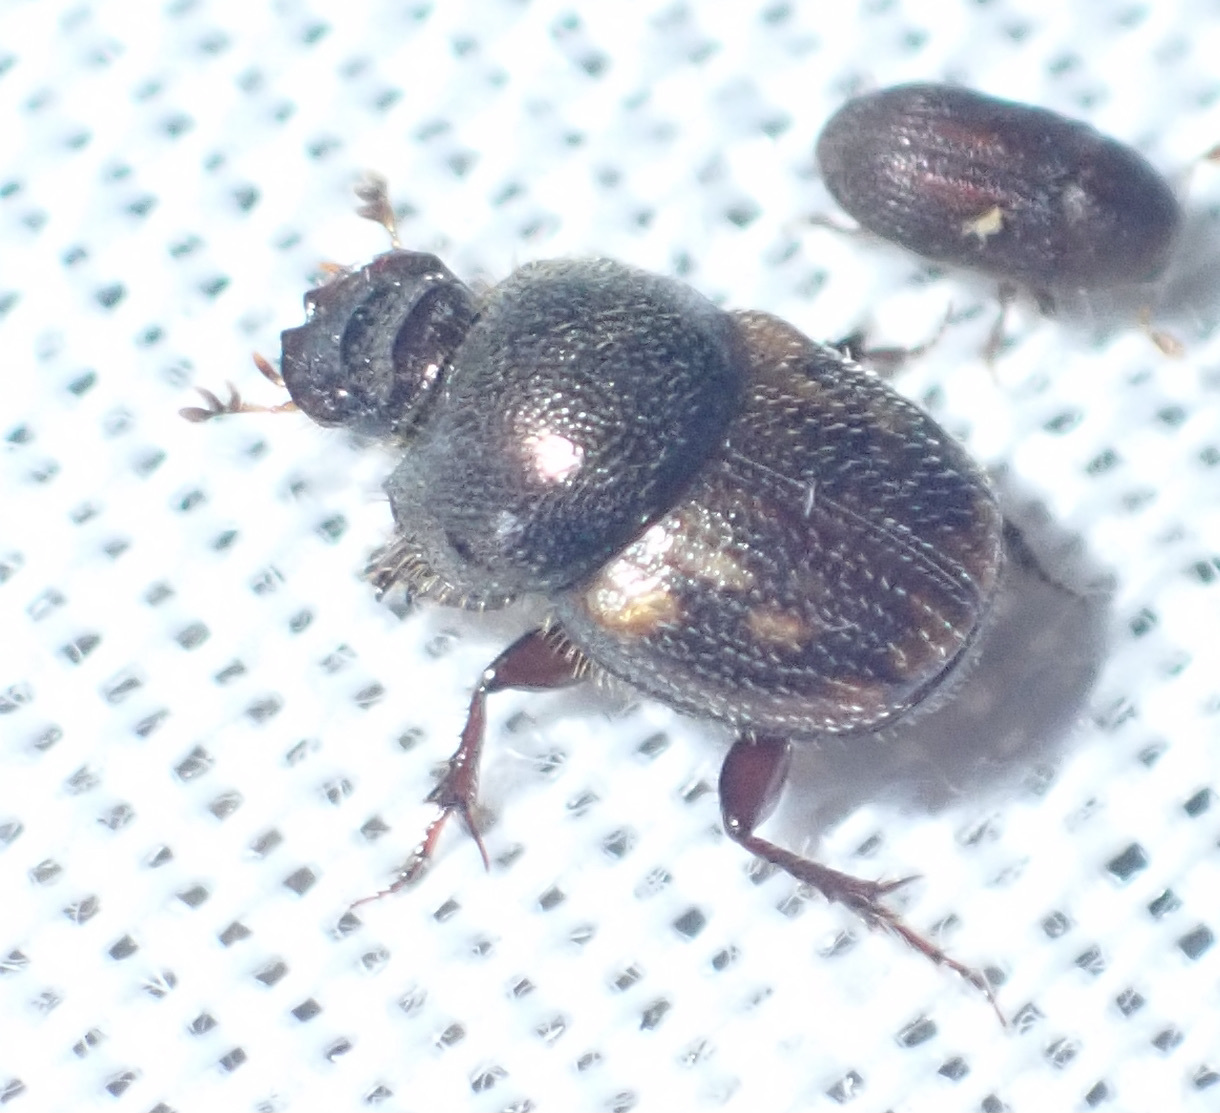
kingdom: Animalia
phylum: Arthropoda
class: Insecta
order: Coleoptera
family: Scarabaeidae
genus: Onthophagus
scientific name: Onthophagus suffusus
